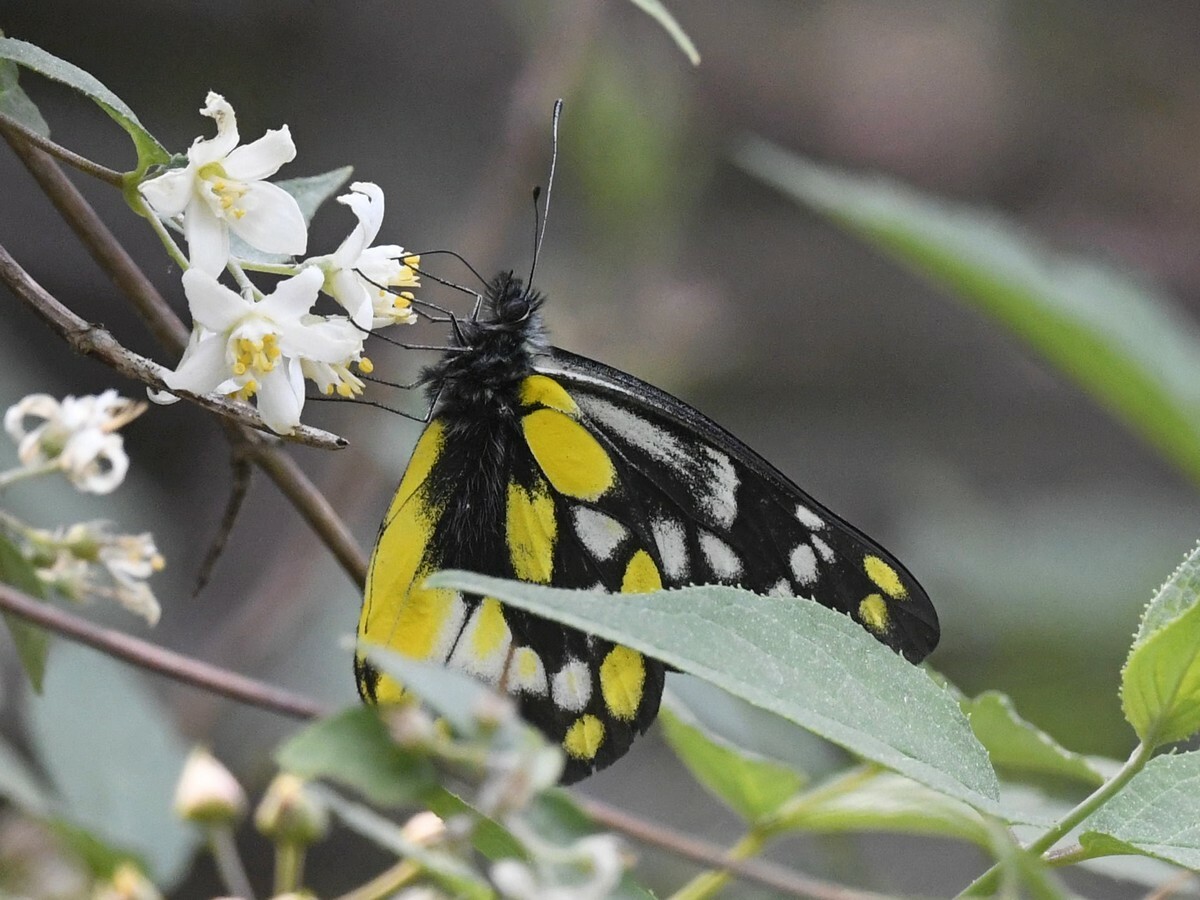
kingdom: Animalia
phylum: Arthropoda
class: Insecta
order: Lepidoptera
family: Pieridae
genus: Delias
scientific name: Delias belladonna
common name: Hill jezebel
